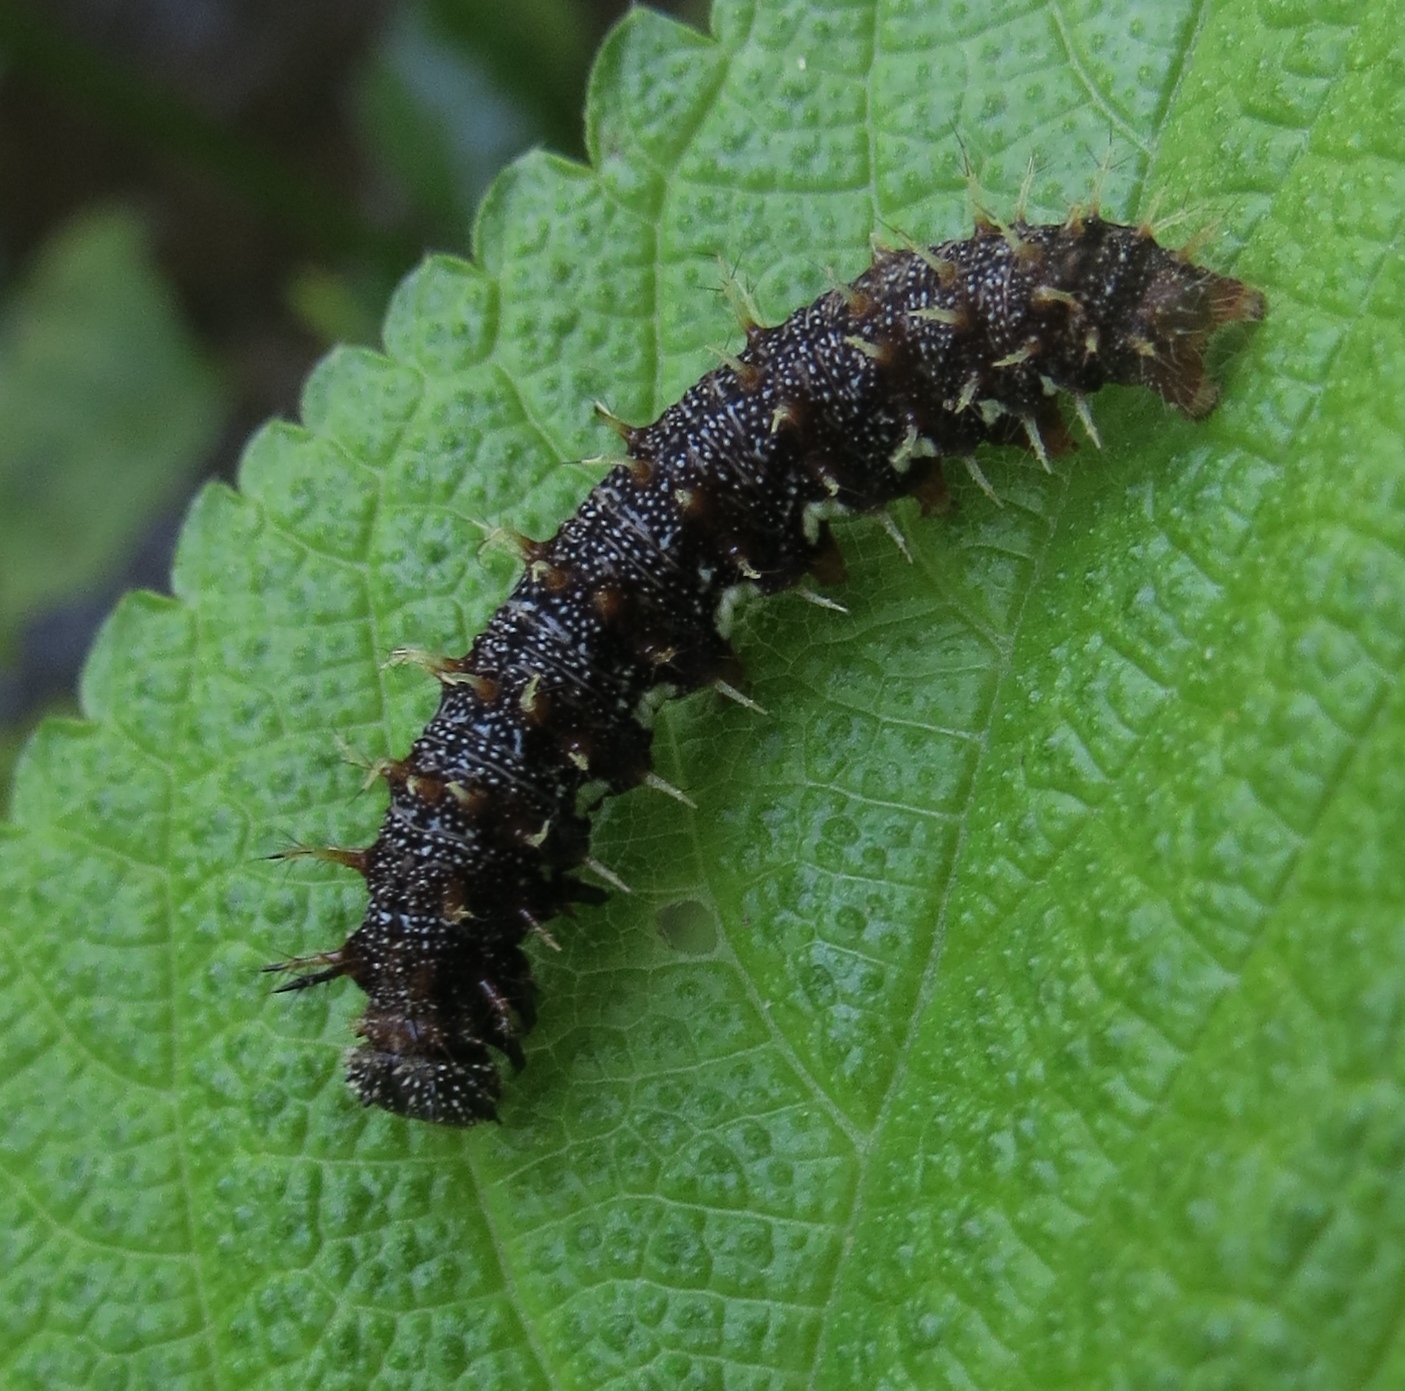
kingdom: Animalia
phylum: Arthropoda
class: Insecta
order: Lepidoptera
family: Nymphalidae
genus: Vanessa
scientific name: Vanessa atalanta
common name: Red admiral
